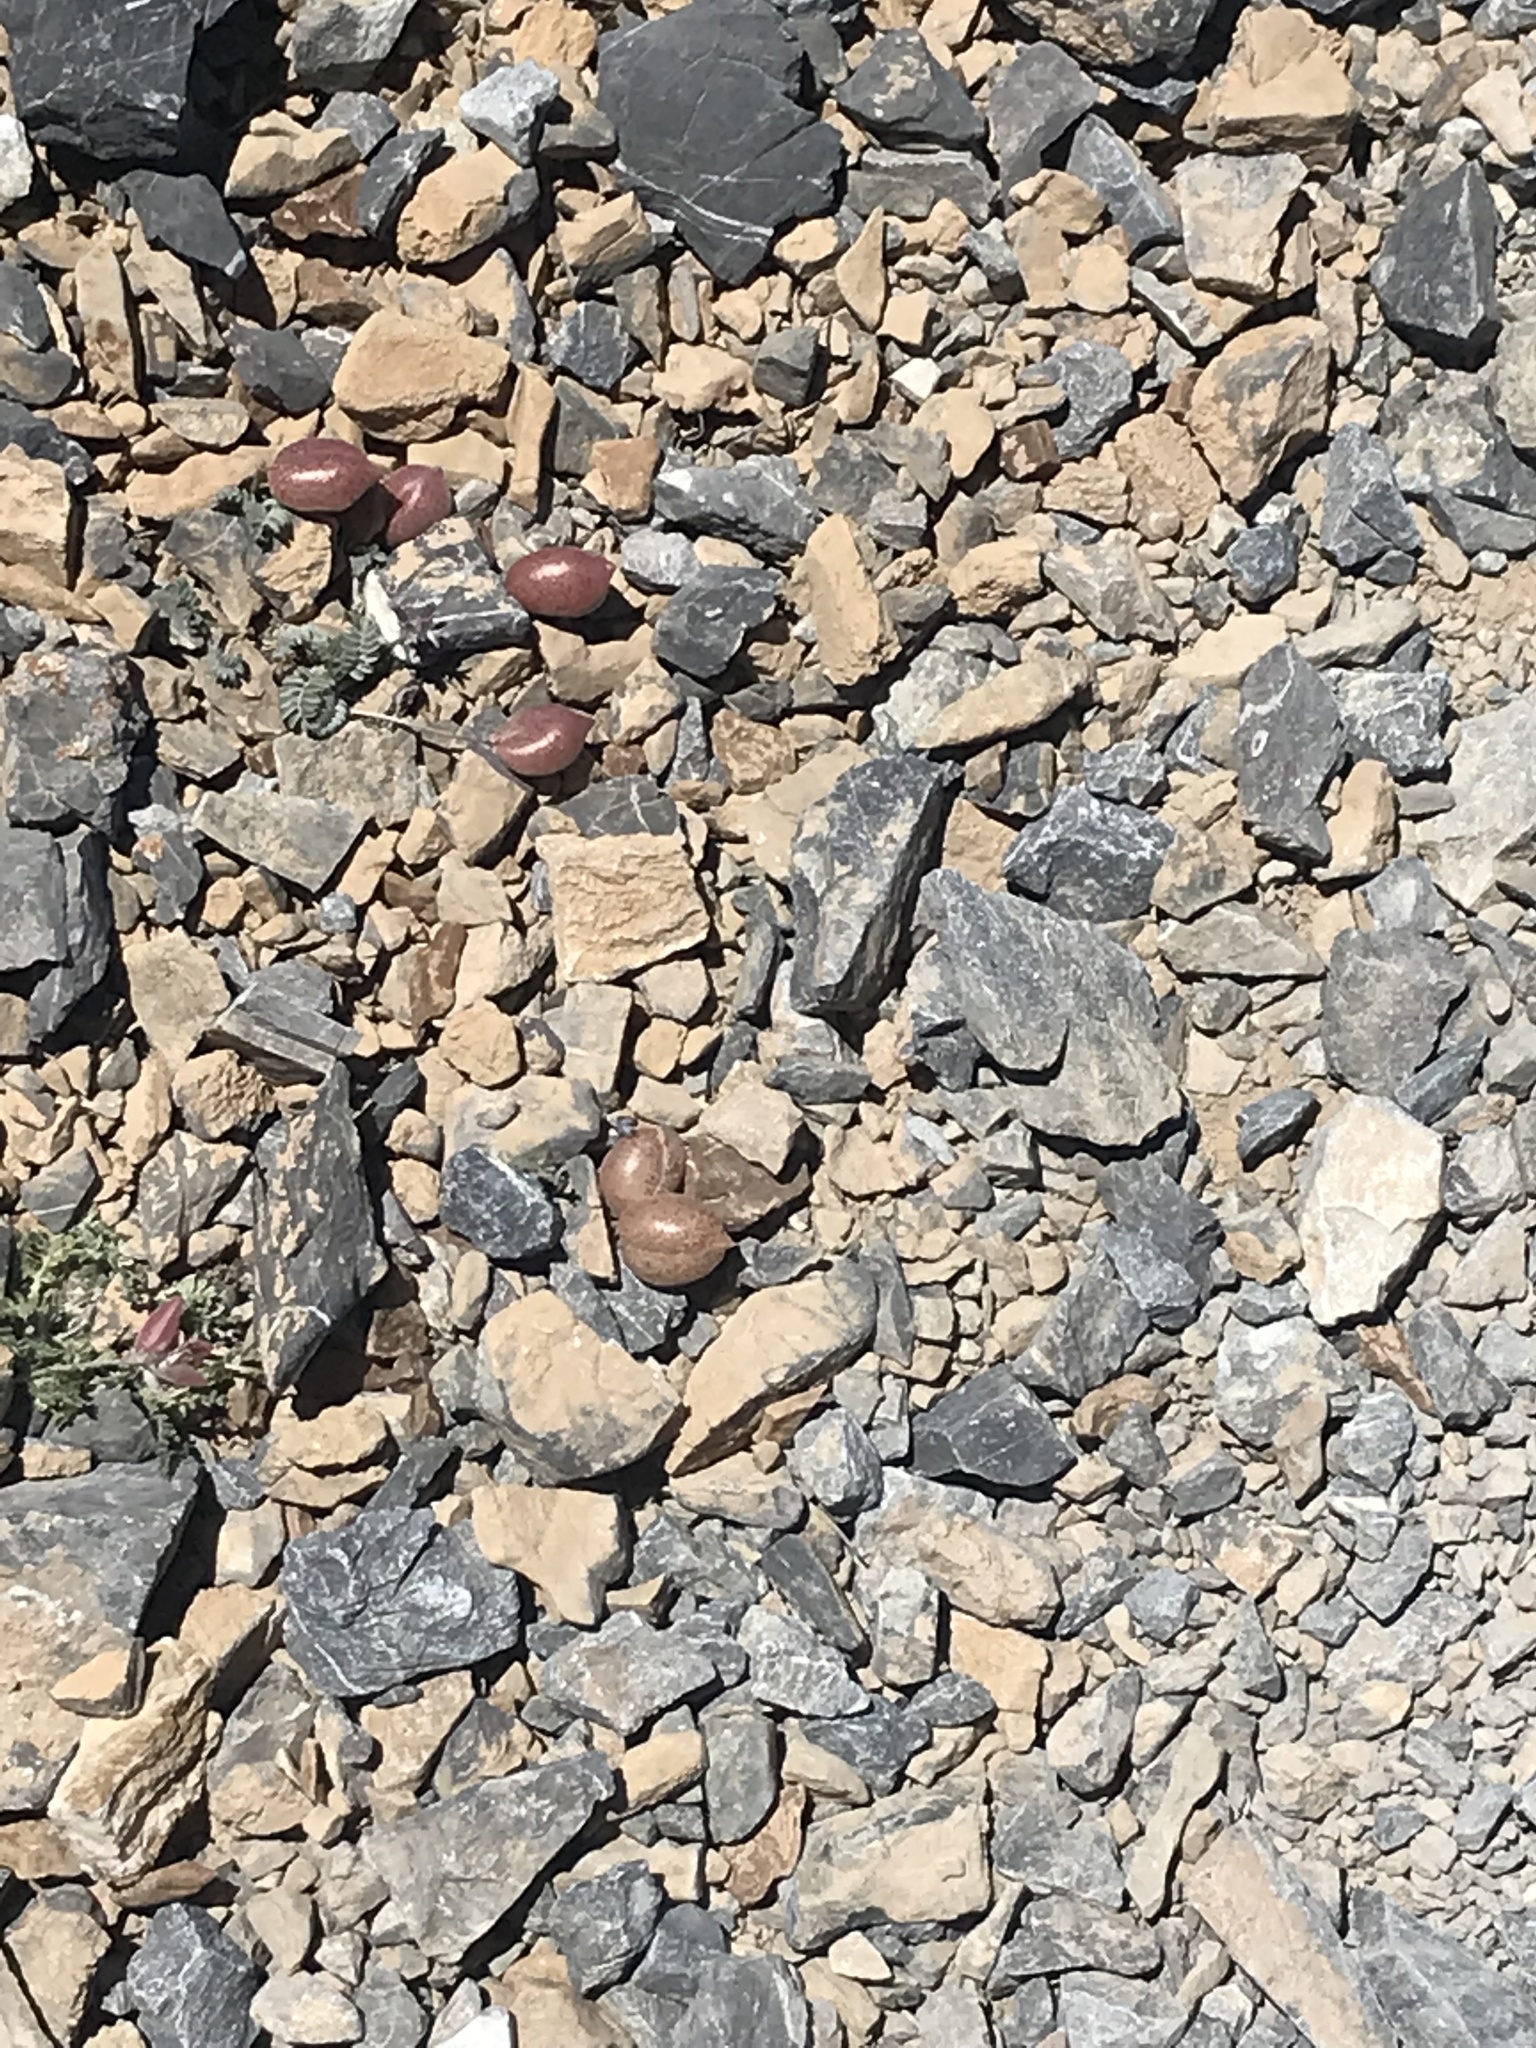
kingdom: Plantae
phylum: Tracheophyta
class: Magnoliopsida
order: Fabales
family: Fabaceae
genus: Astragalus
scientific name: Astragalus platytropis
